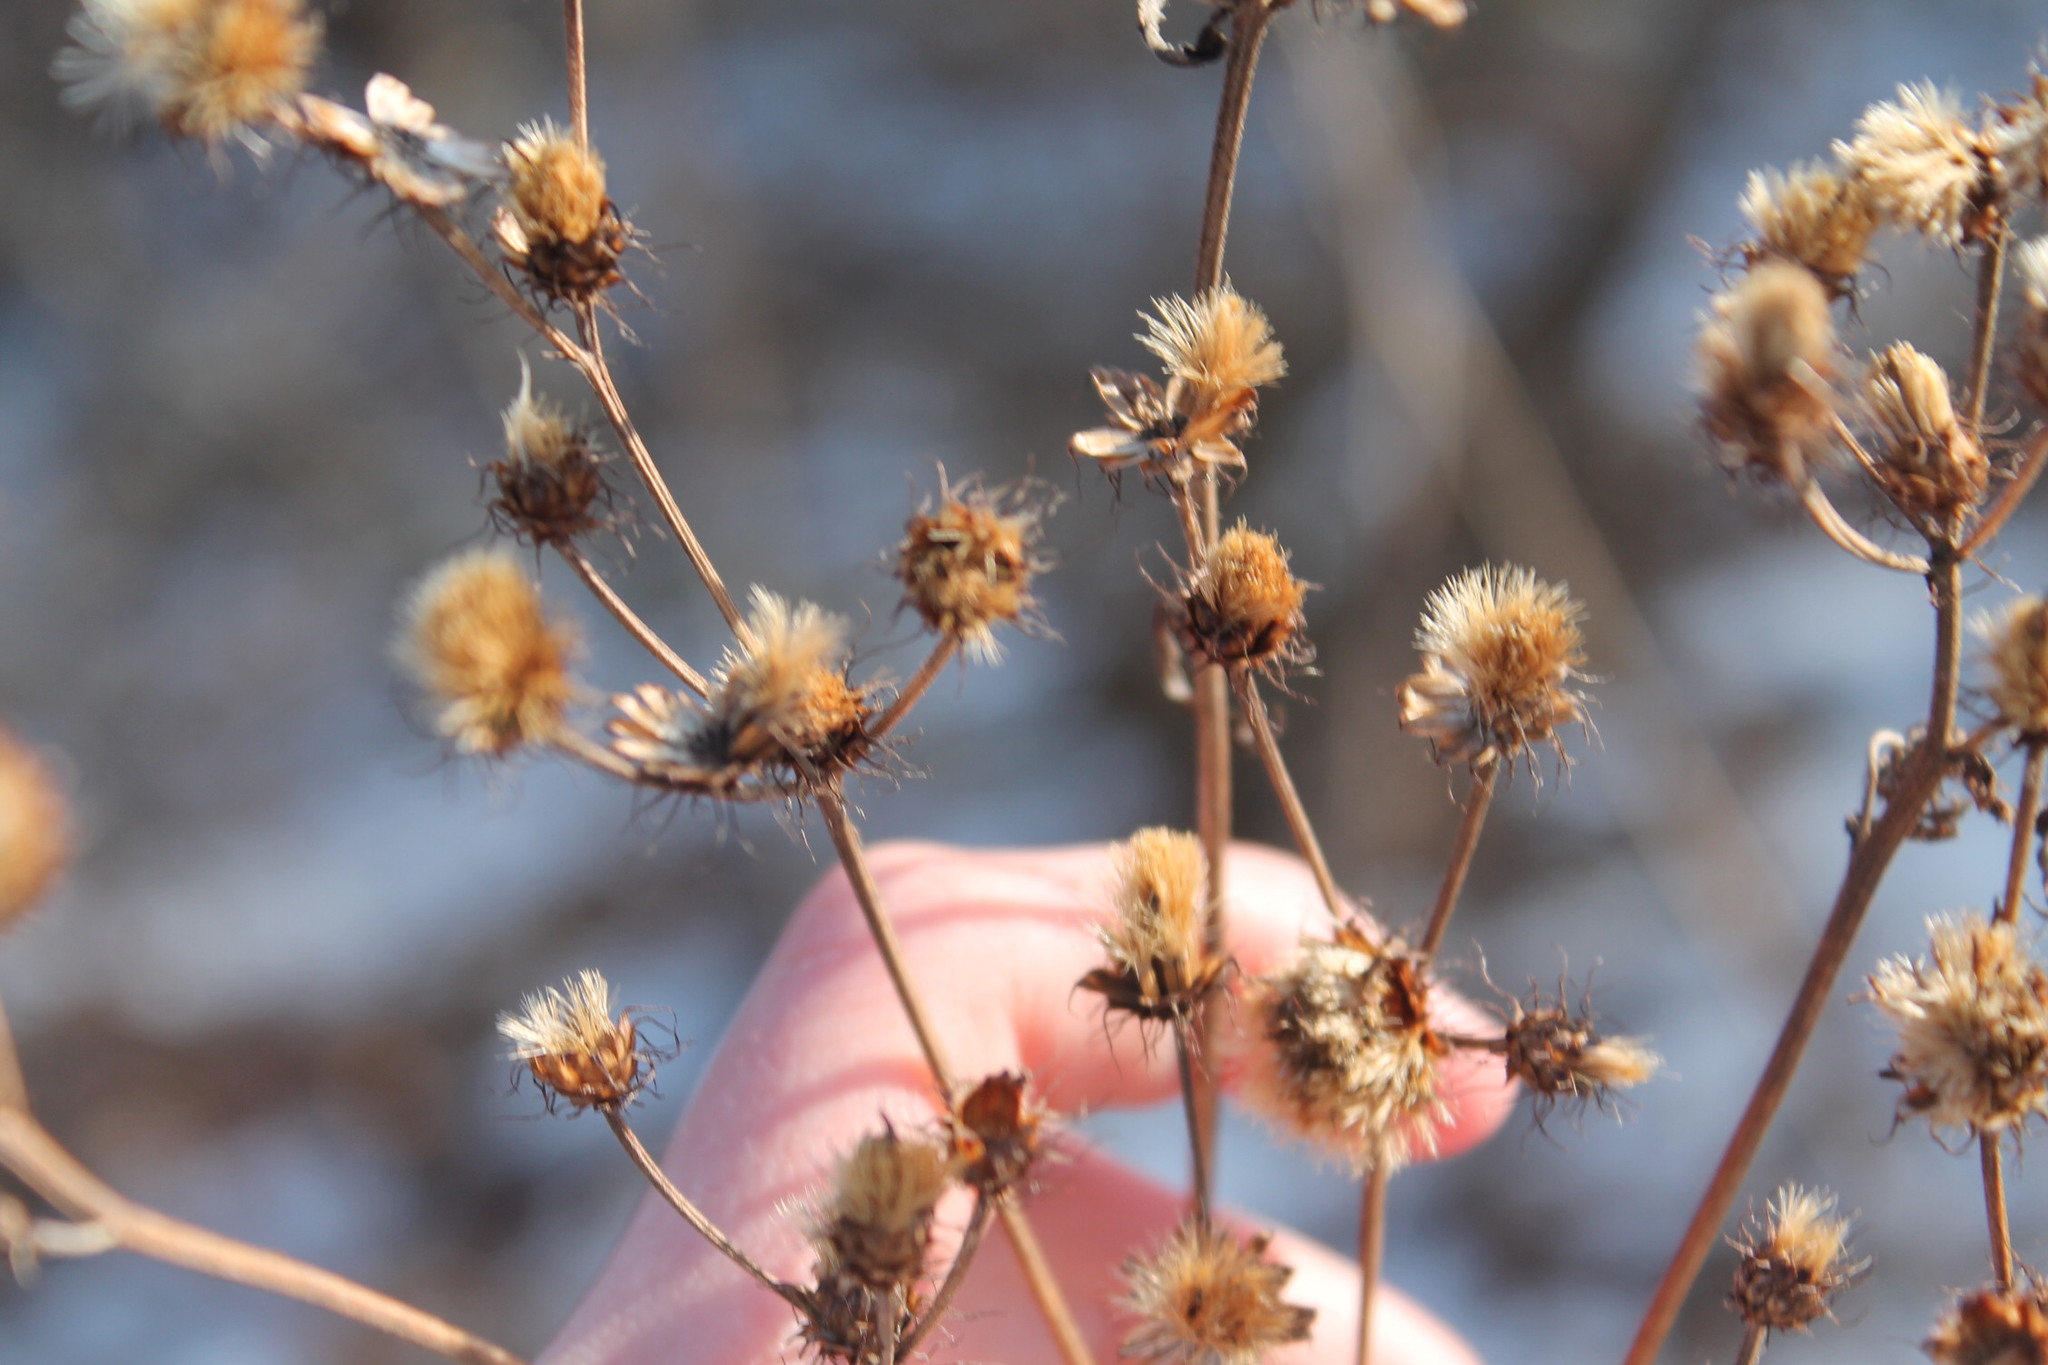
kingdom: Plantae
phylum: Tracheophyta
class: Magnoliopsida
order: Asterales
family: Asteraceae
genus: Vernonia
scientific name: Vernonia noveboracensis
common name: New york ironweed
